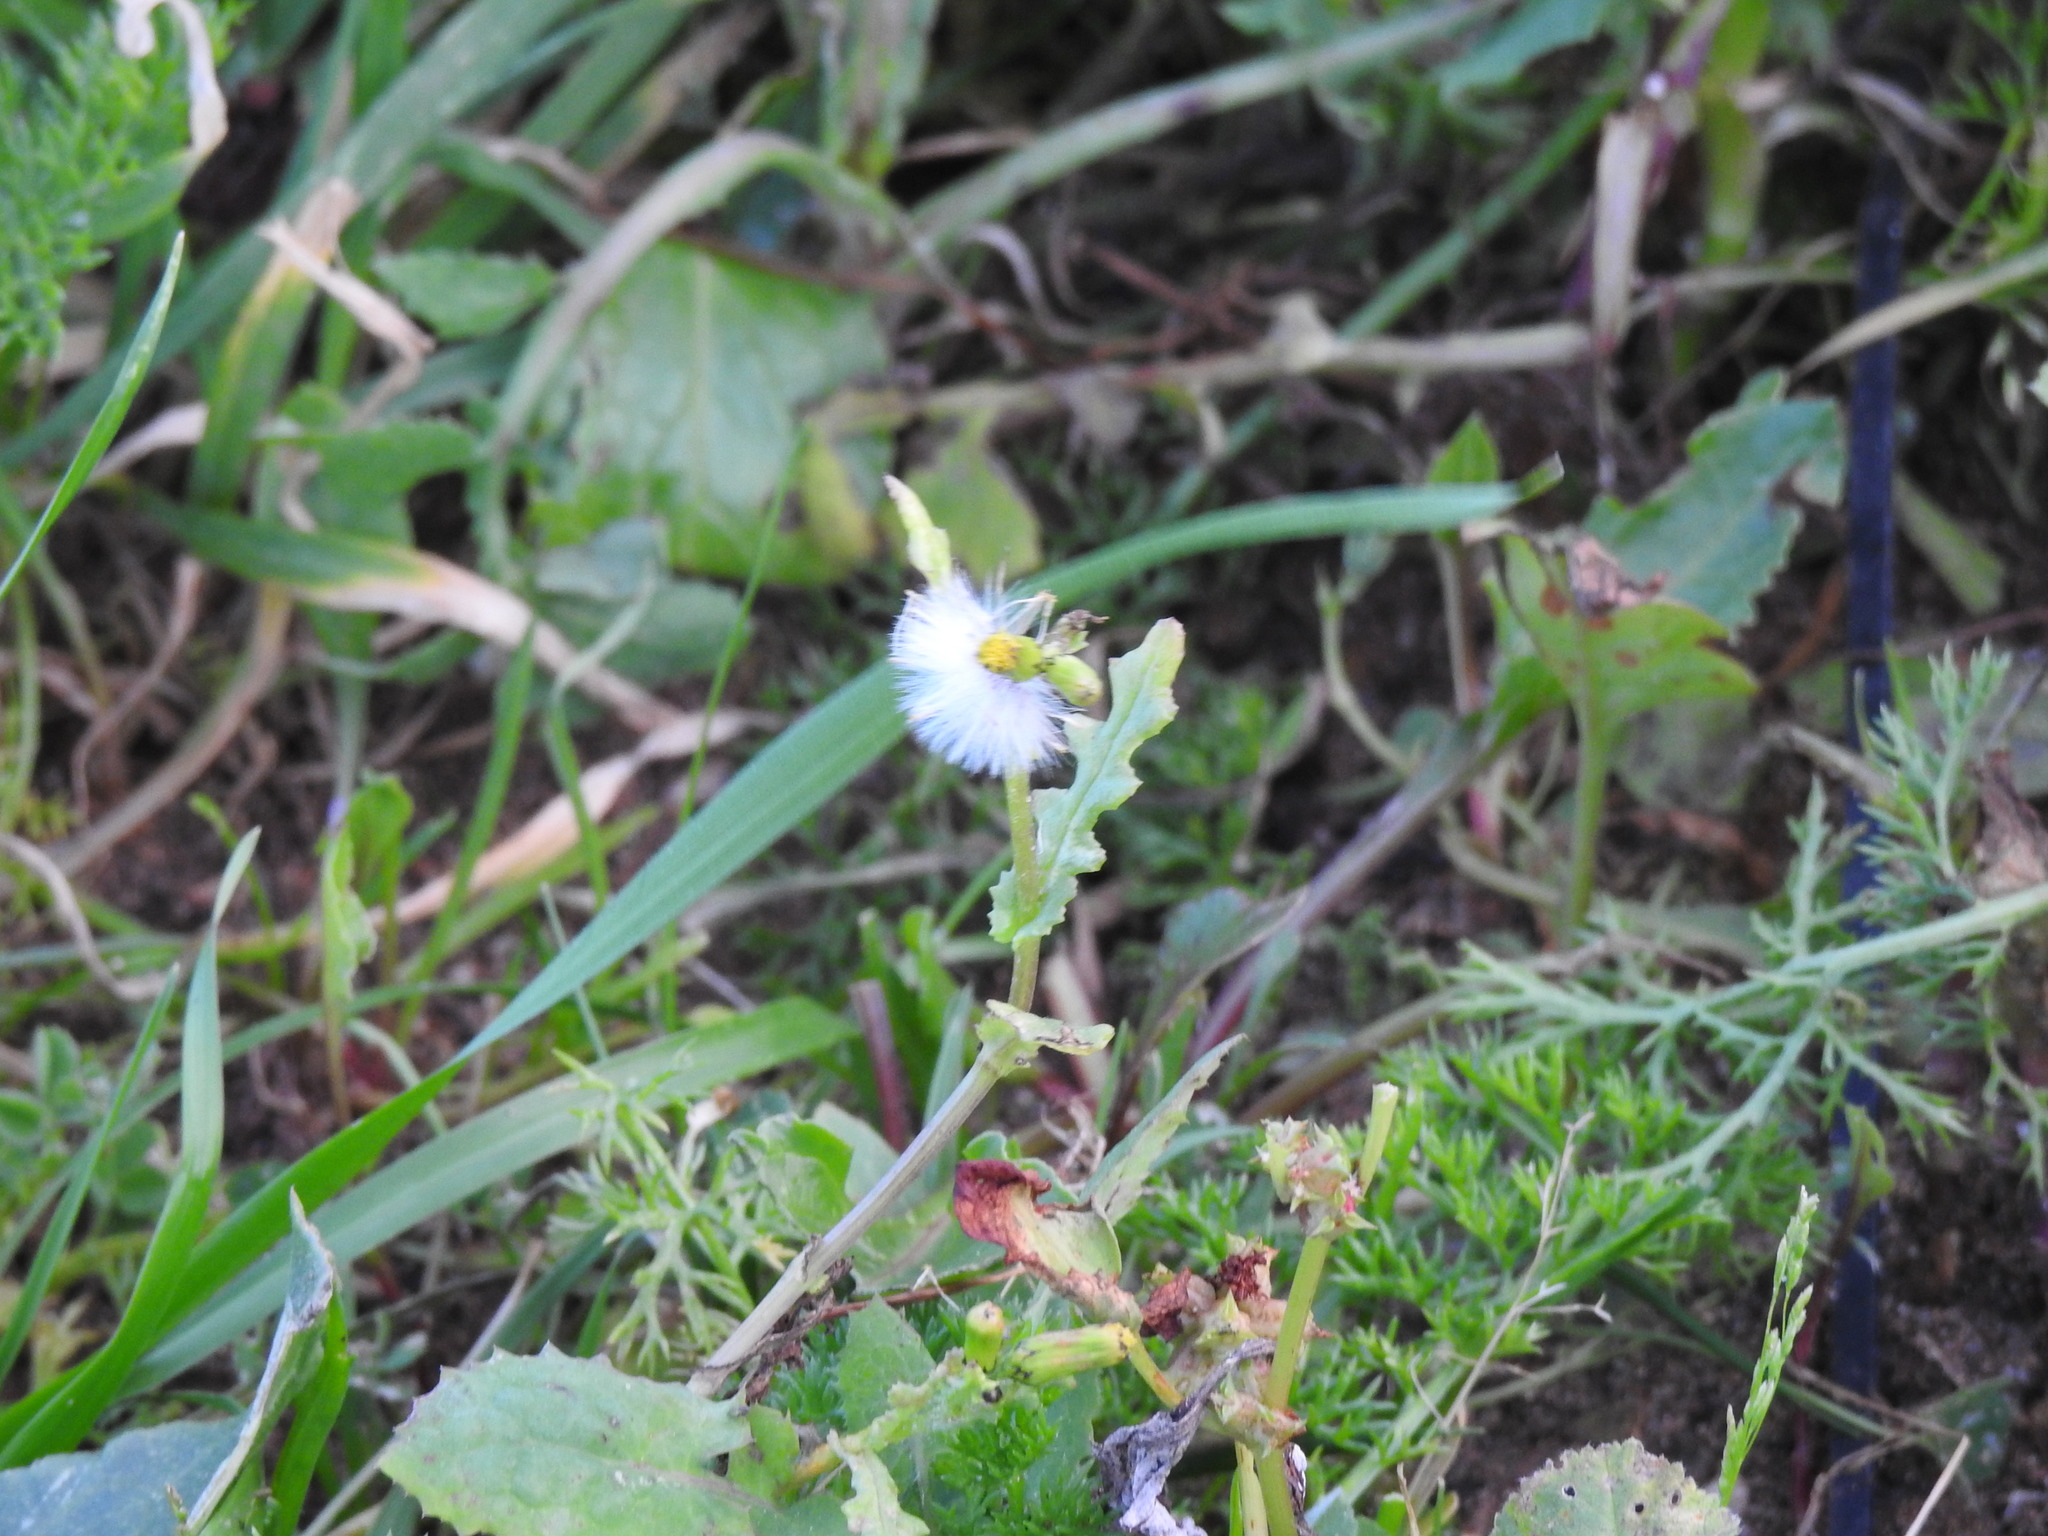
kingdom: Plantae
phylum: Tracheophyta
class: Magnoliopsida
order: Asterales
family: Asteraceae
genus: Senecio
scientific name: Senecio vulgaris
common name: Old-man-in-the-spring
